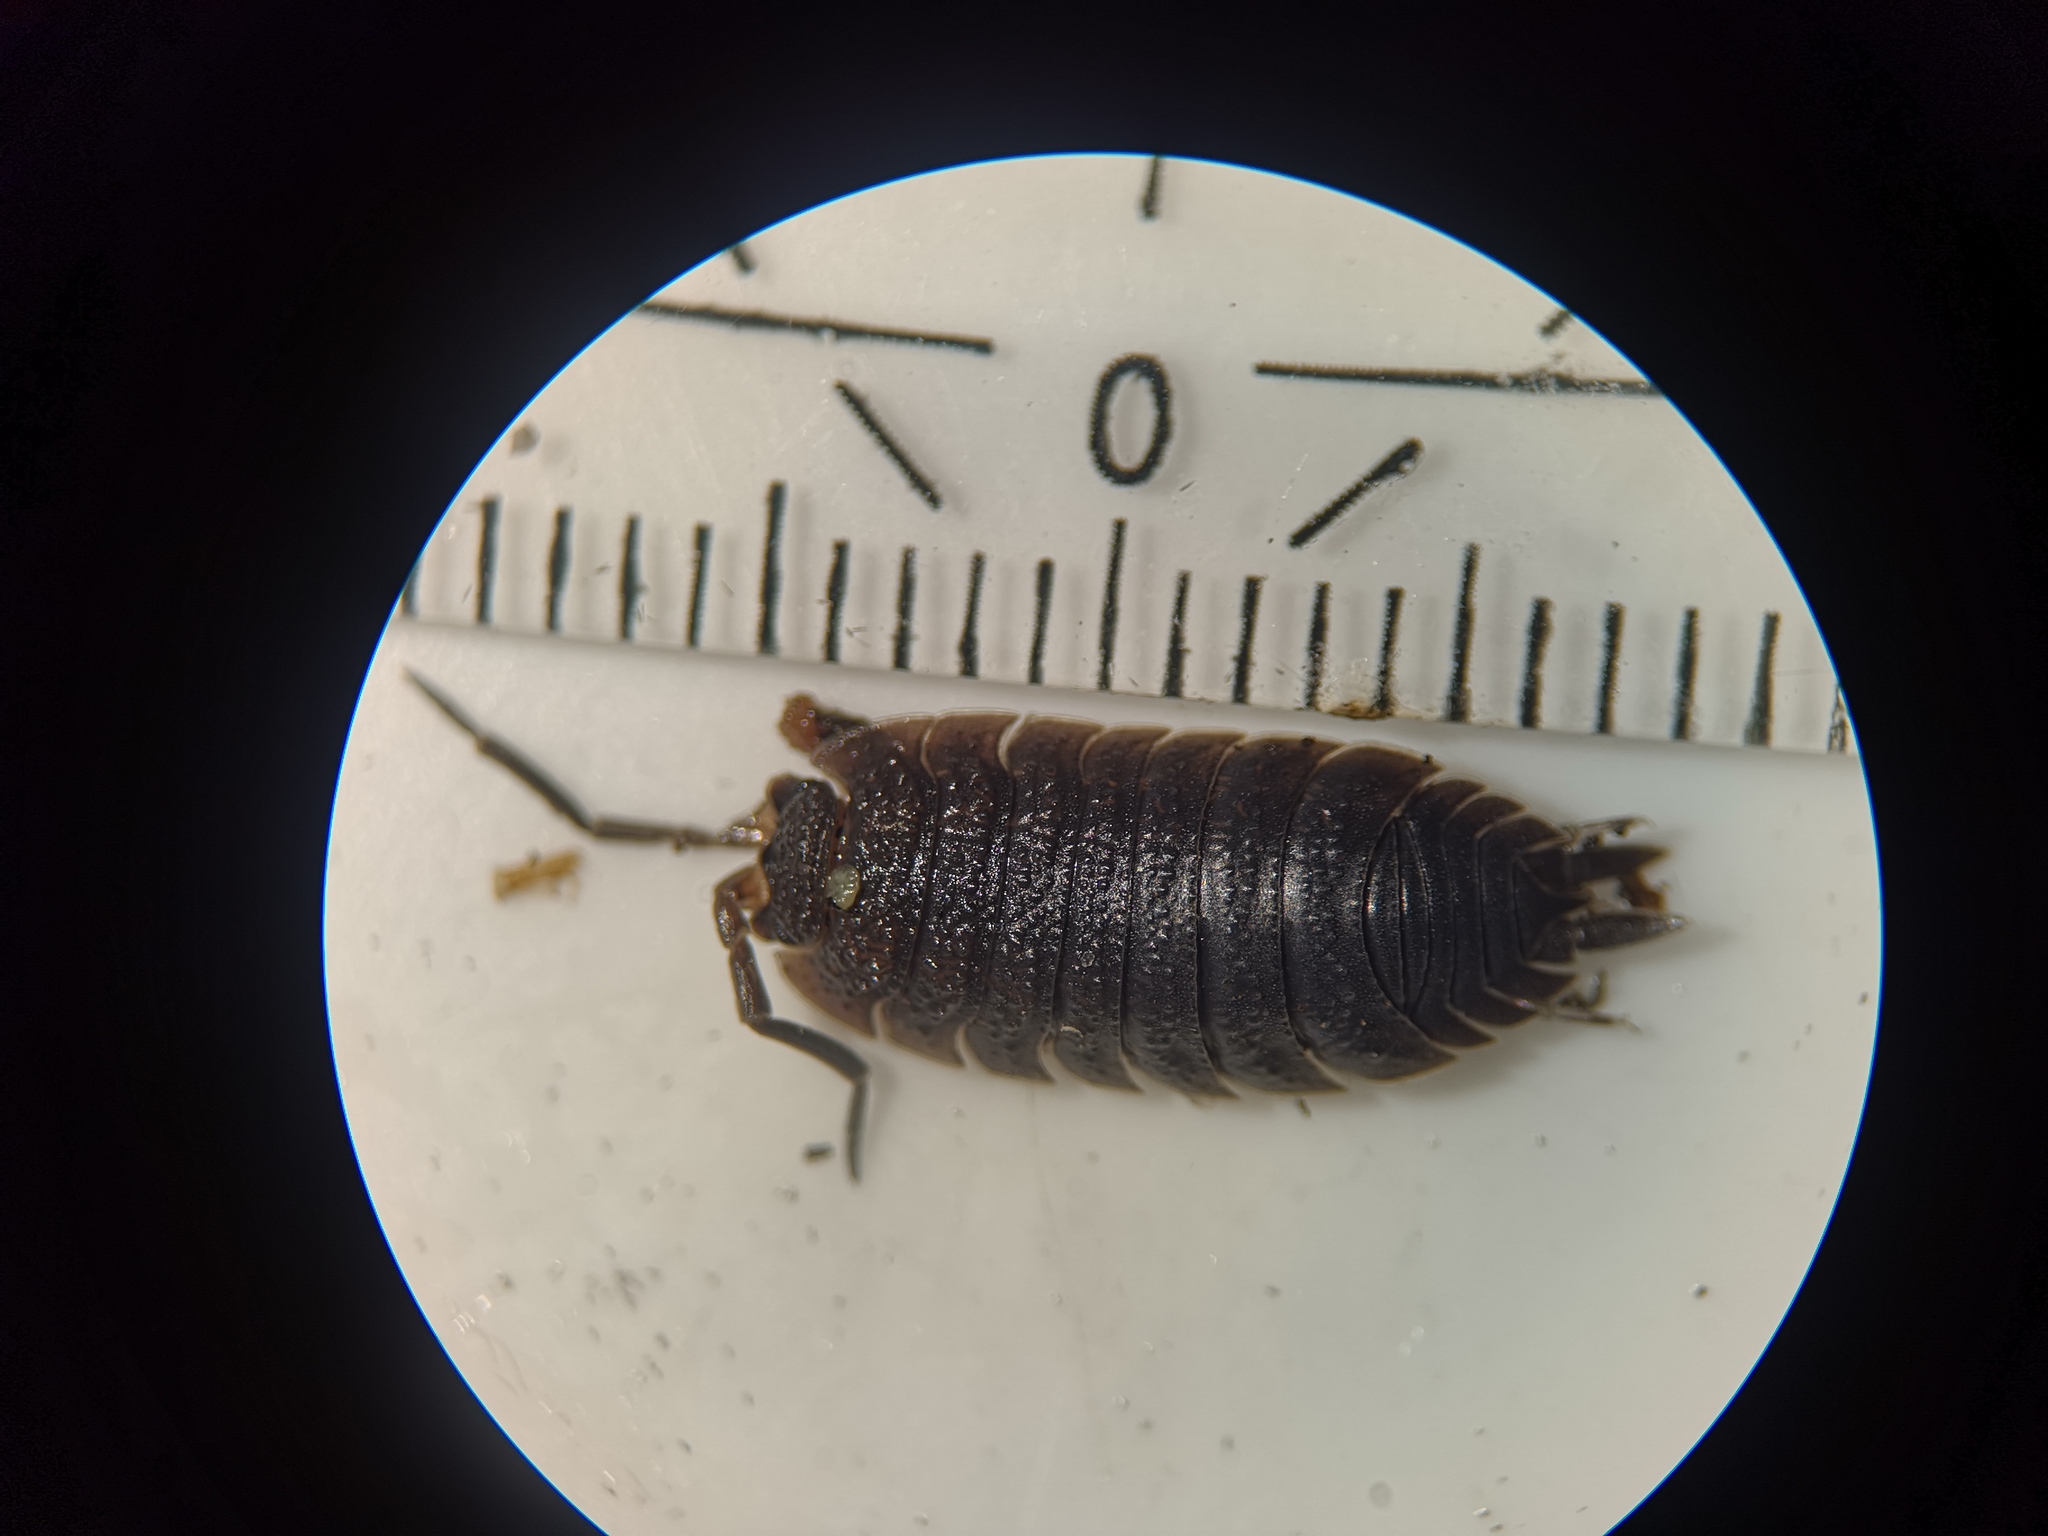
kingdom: Animalia
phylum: Arthropoda
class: Malacostraca
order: Isopoda
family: Porcellionidae
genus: Porcellio
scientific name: Porcellio scaber
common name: Common rough woodlouse
